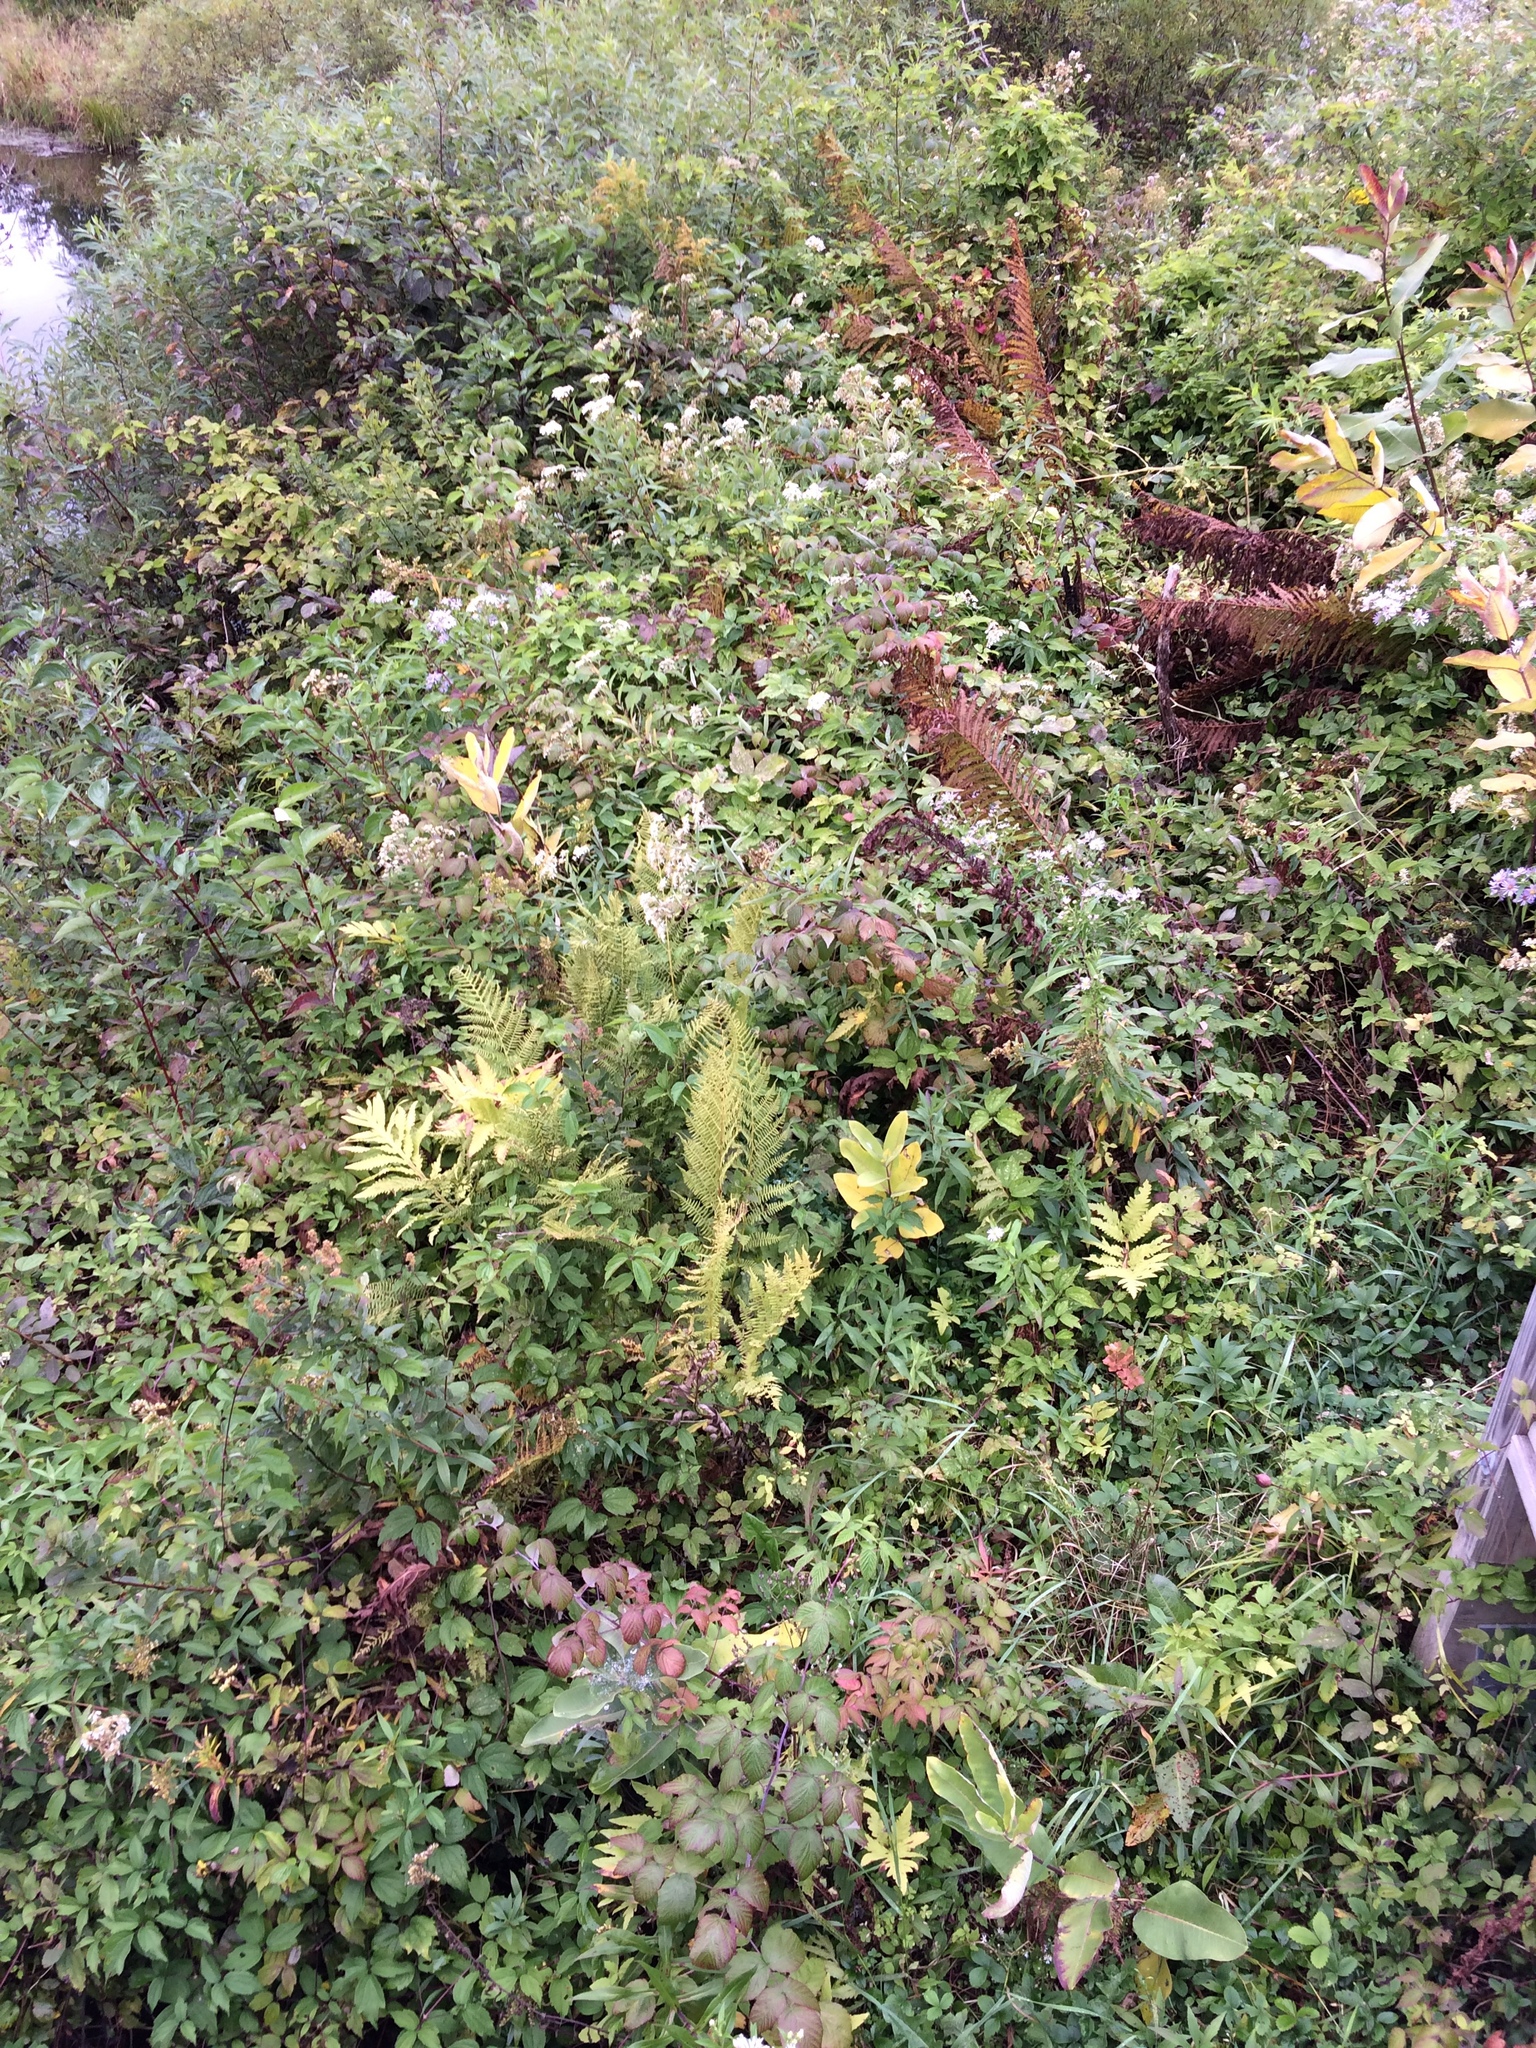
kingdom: Plantae
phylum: Tracheophyta
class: Polypodiopsida
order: Polypodiales
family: Onocleaceae
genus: Matteuccia
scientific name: Matteuccia struthiopteris
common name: Ostrich fern
